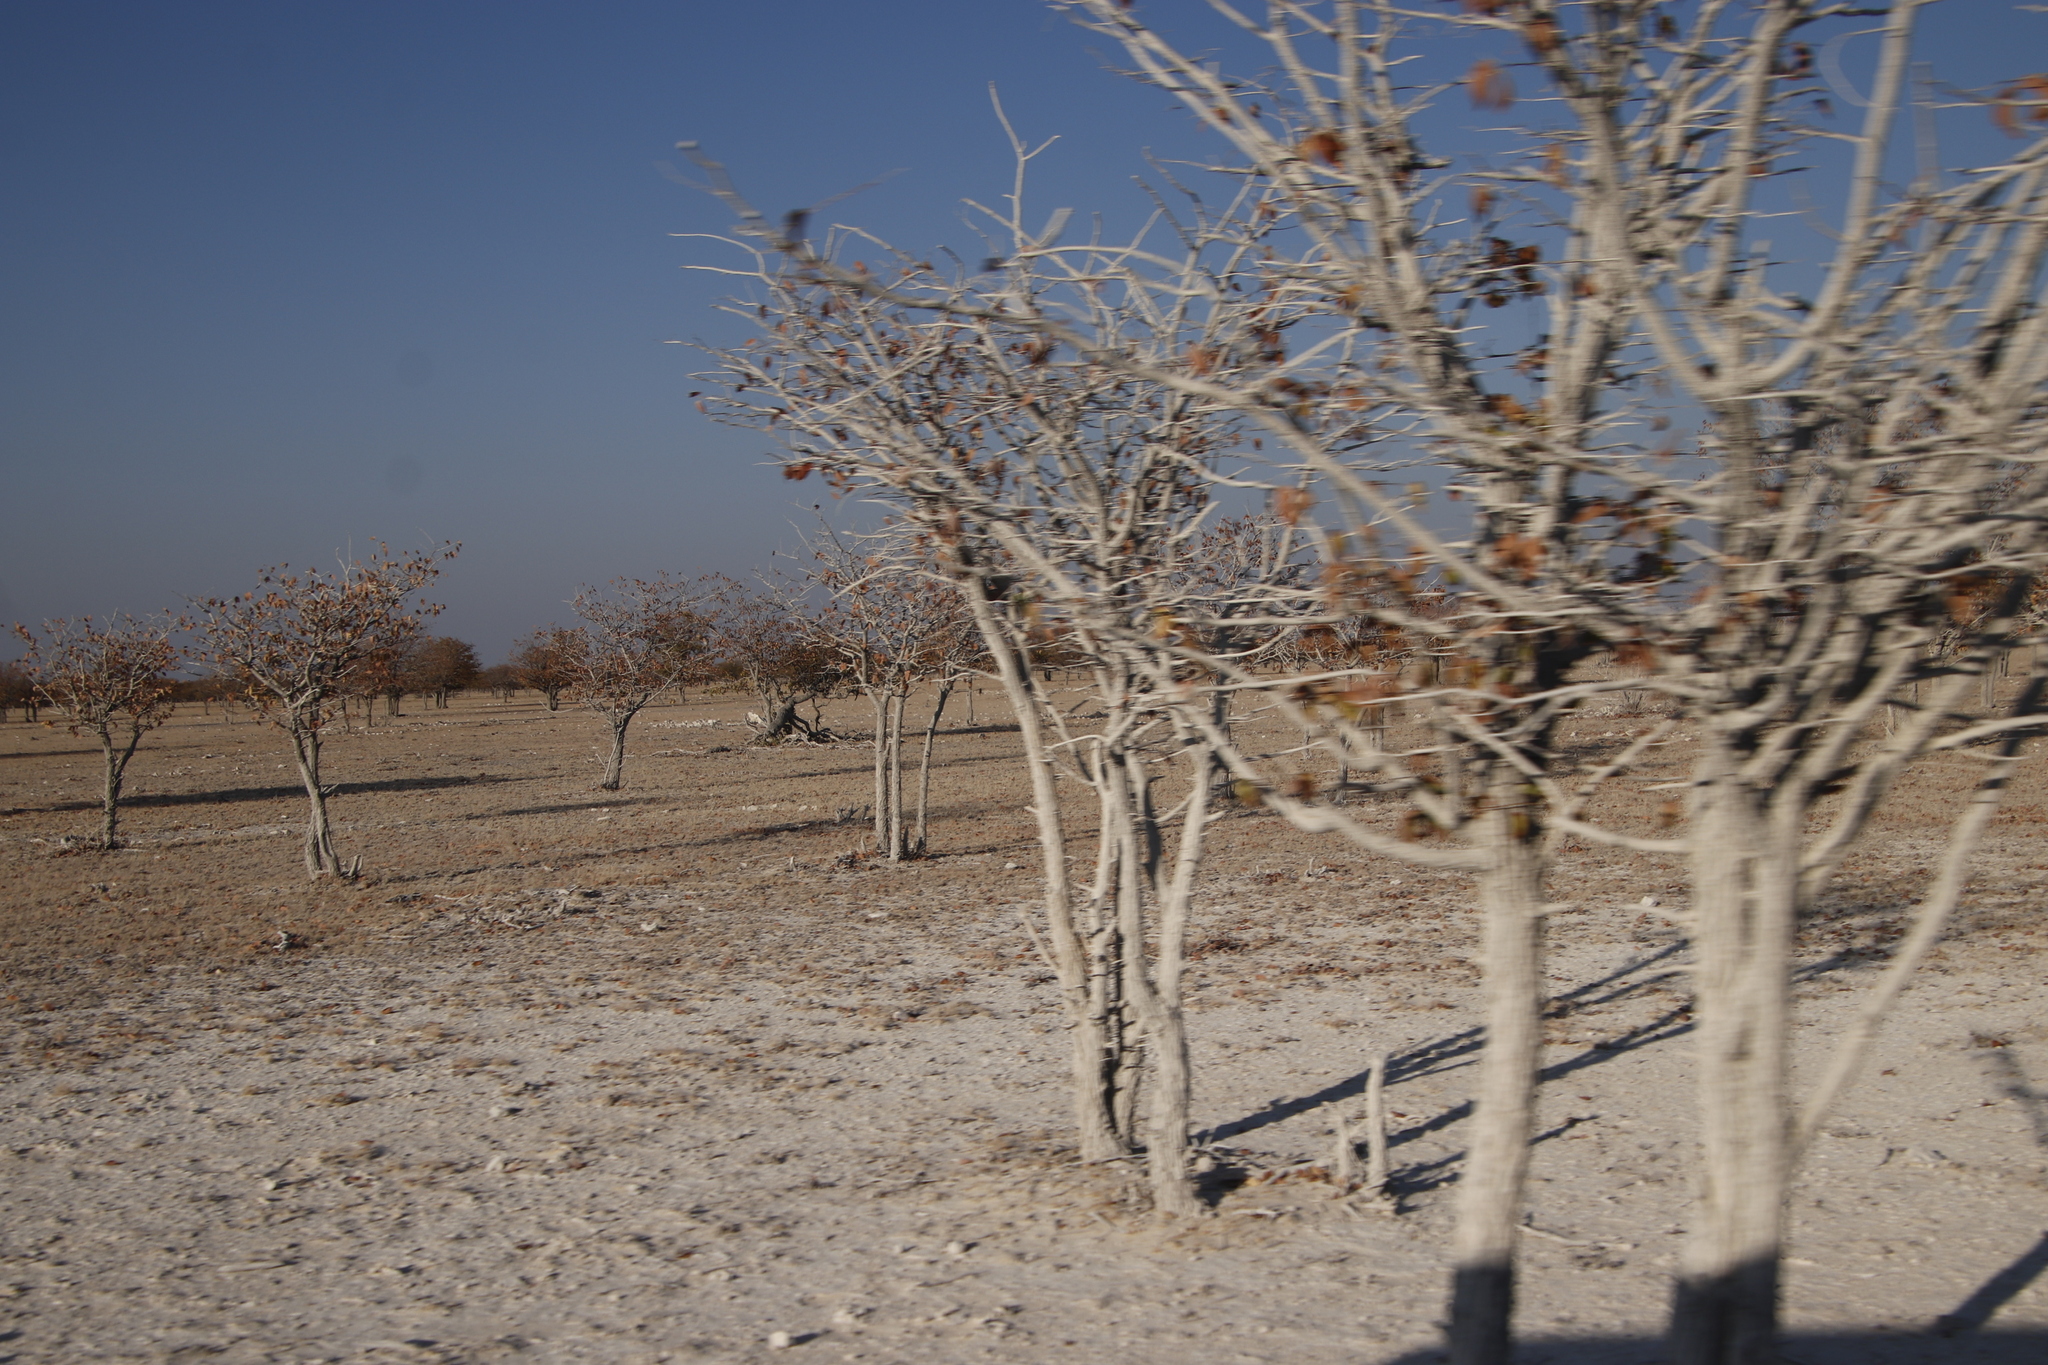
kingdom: Plantae
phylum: Tracheophyta
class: Magnoliopsida
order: Fabales
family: Fabaceae
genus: Colophospermum
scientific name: Colophospermum mopane
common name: Mopane
